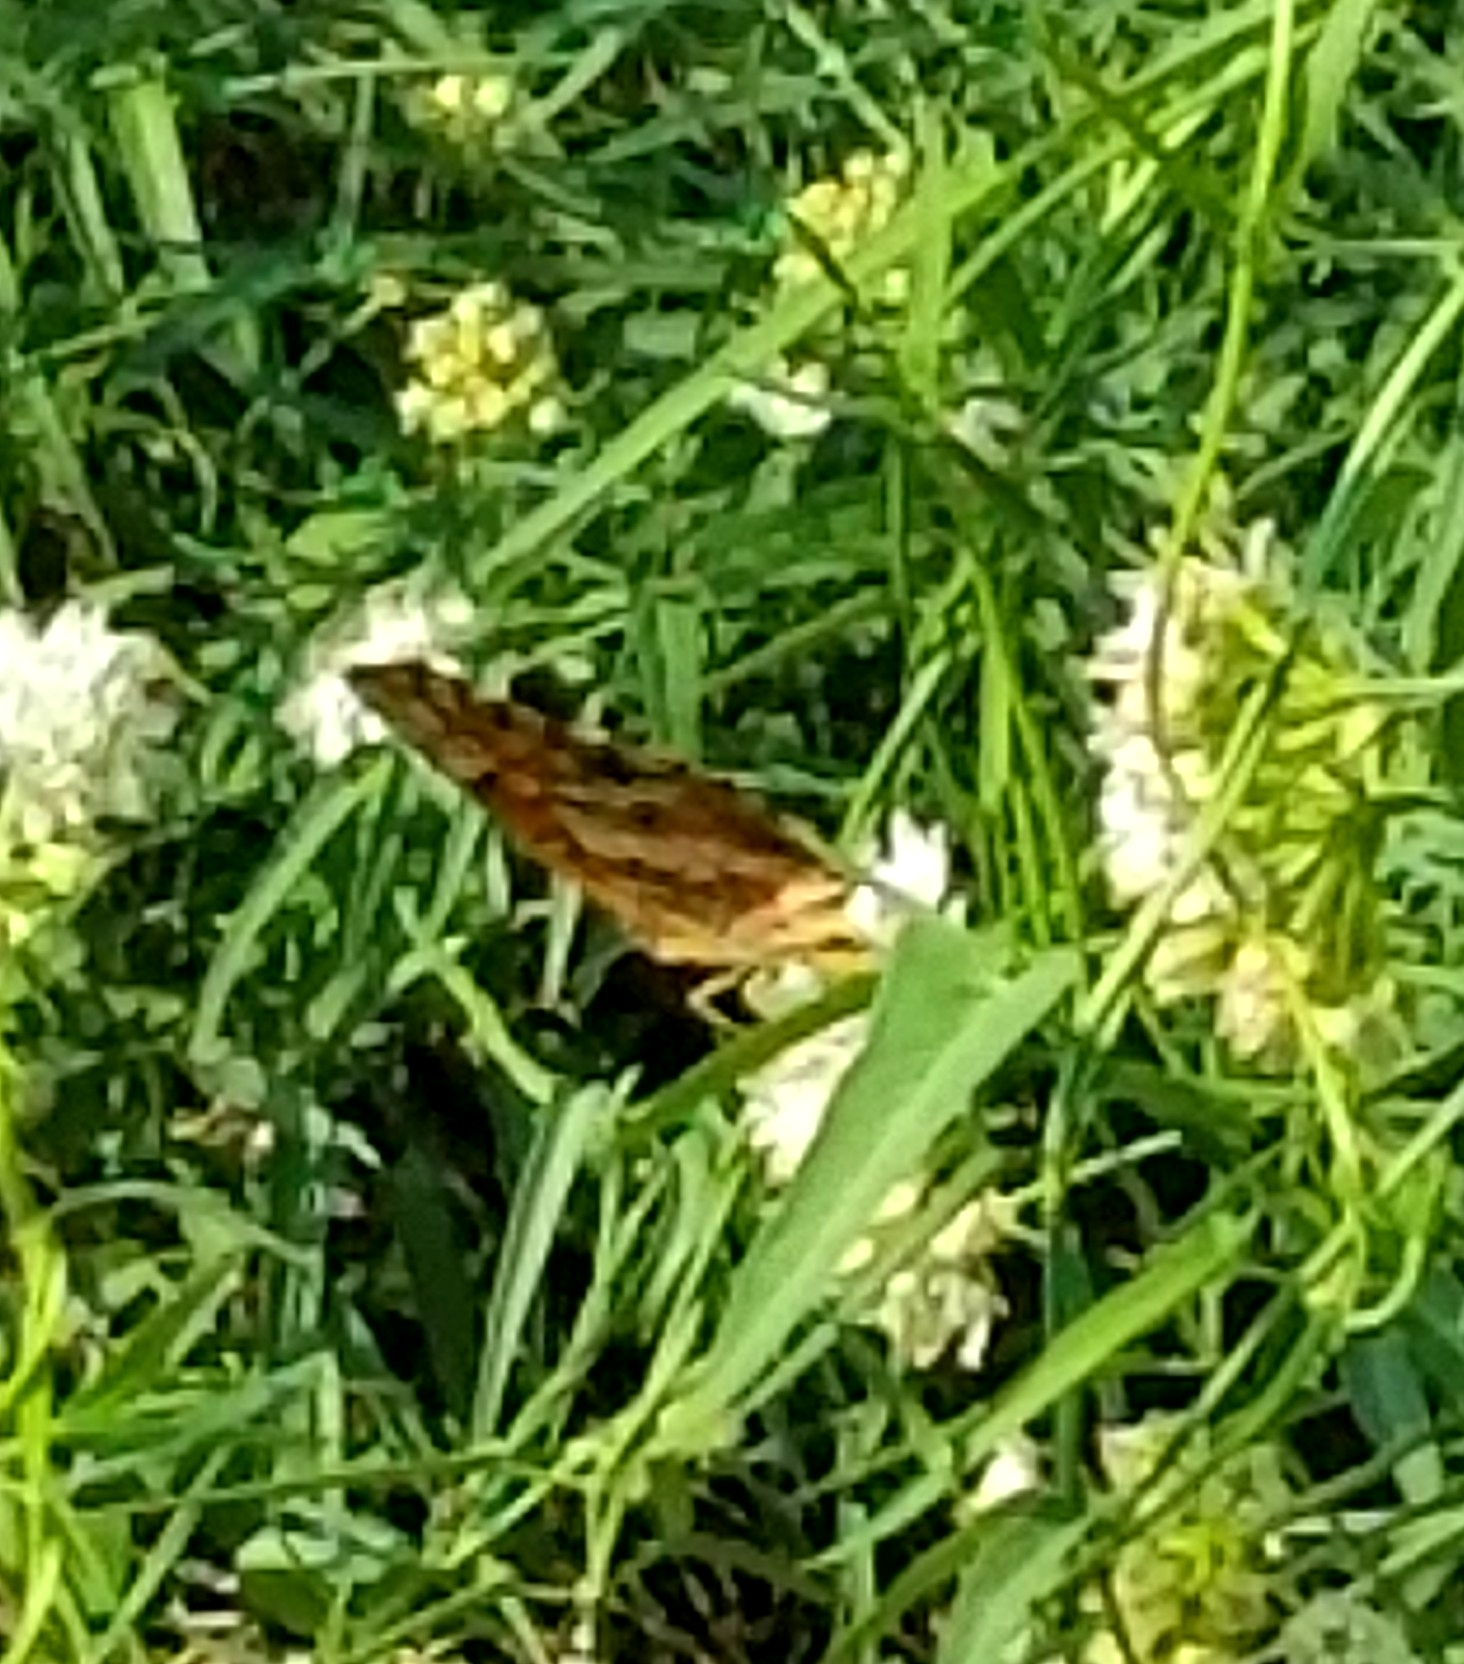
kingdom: Animalia
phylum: Arthropoda
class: Insecta
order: Lepidoptera
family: Nymphalidae
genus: Euptoieta
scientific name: Euptoieta claudia
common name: Variegated fritillary
